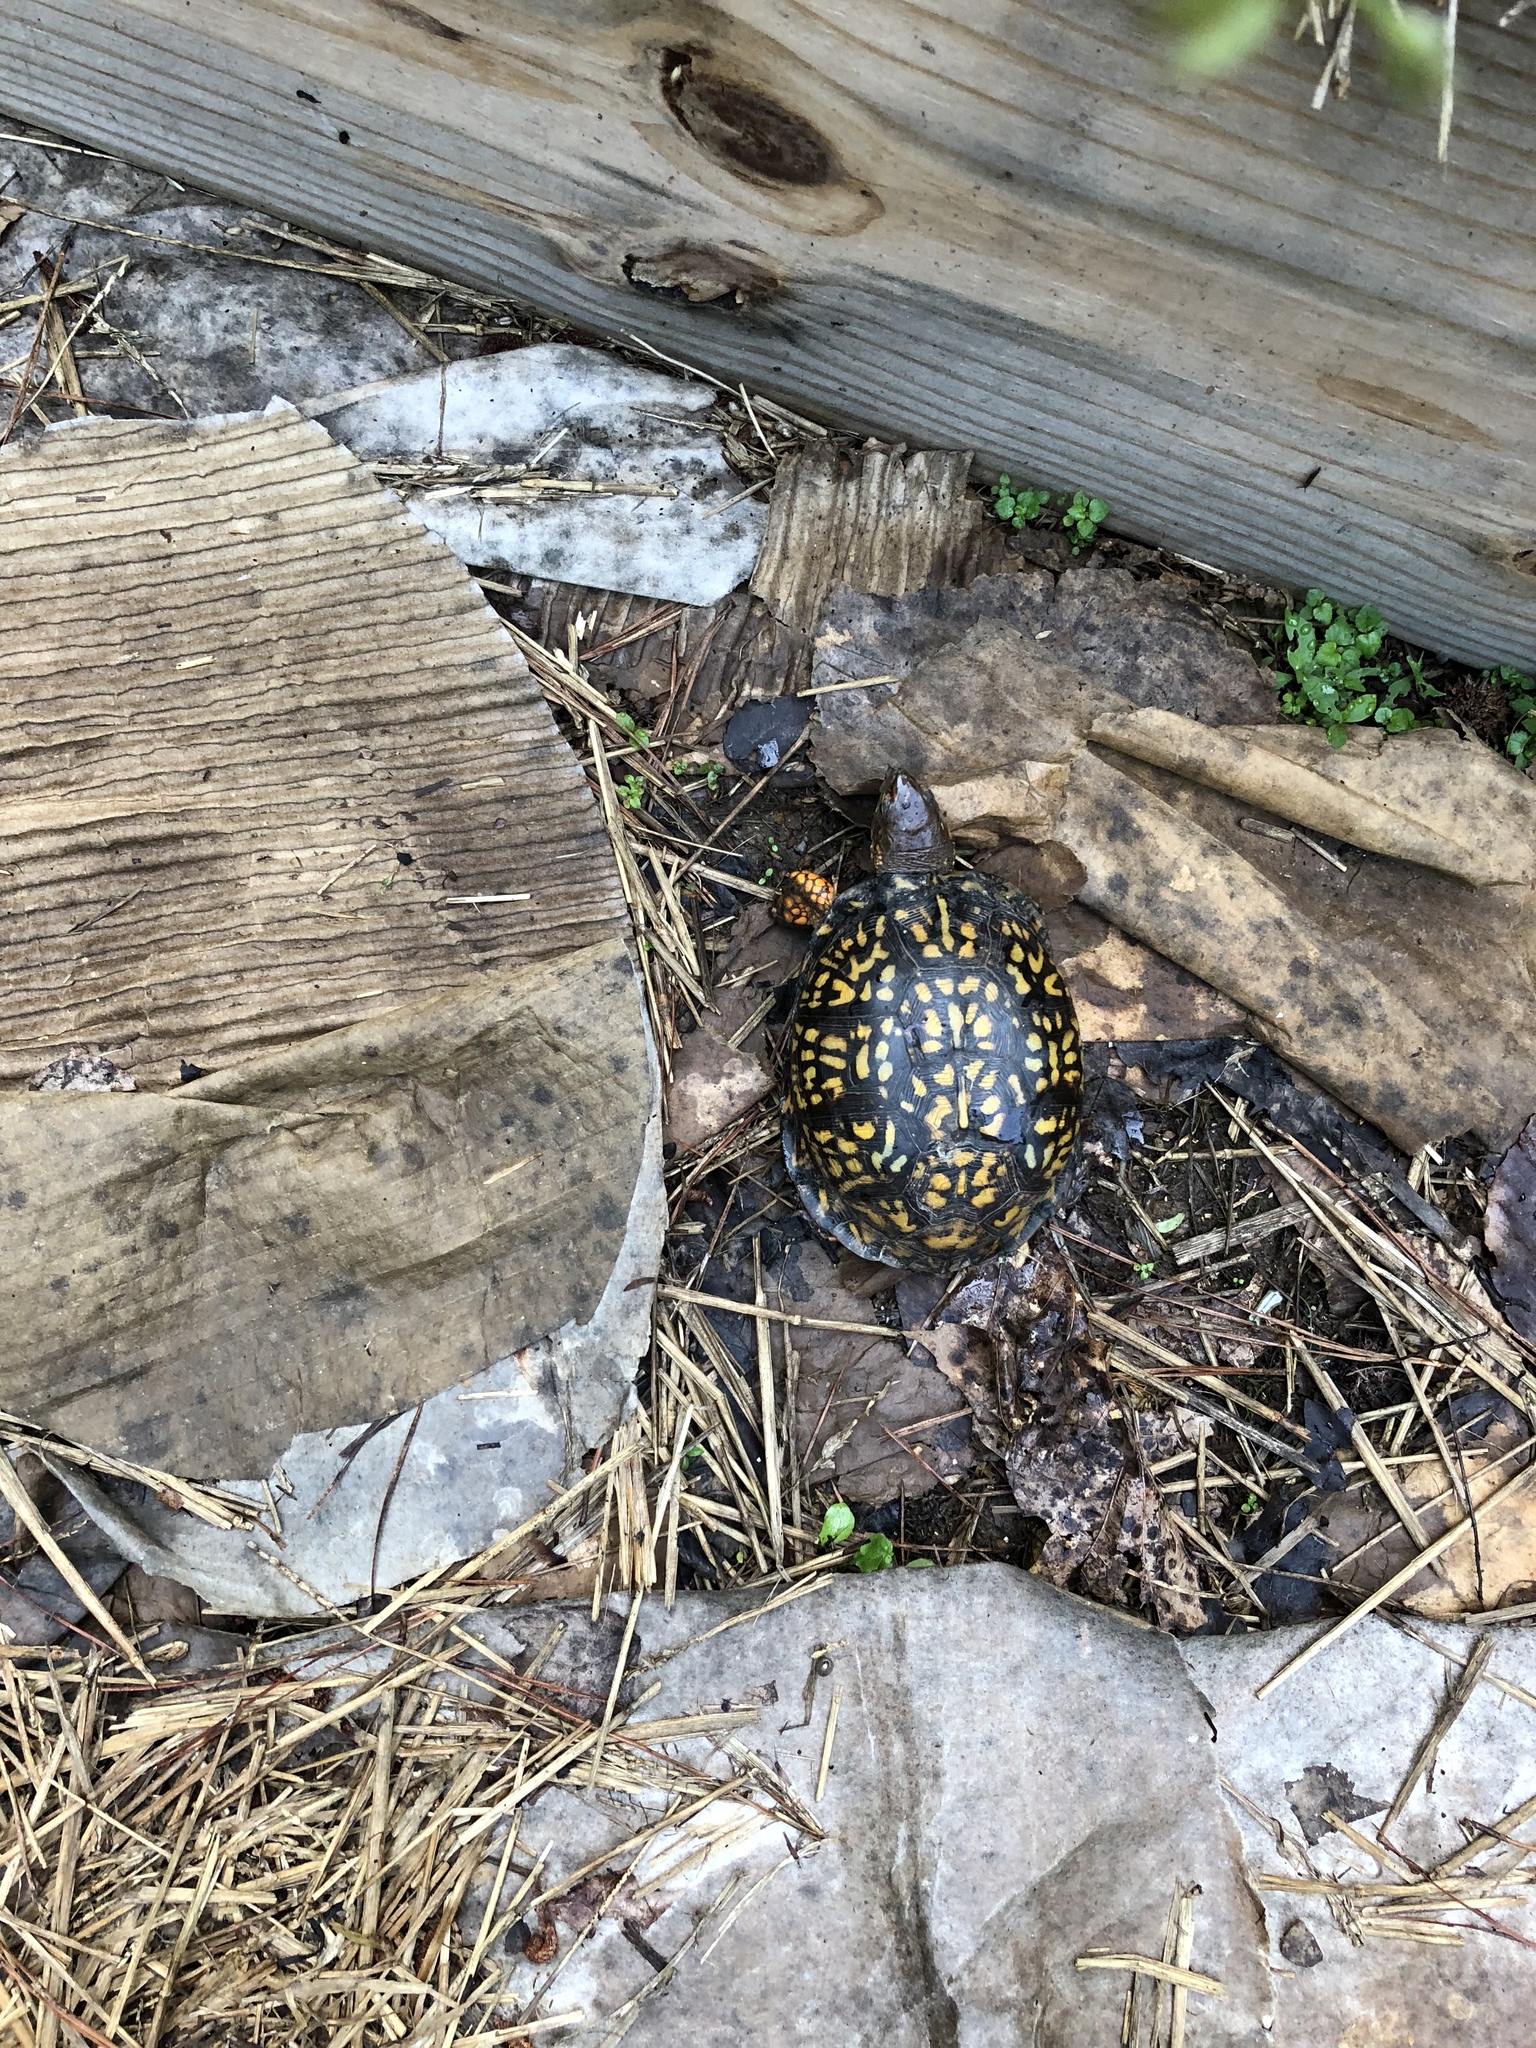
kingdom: Animalia
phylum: Chordata
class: Testudines
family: Emydidae
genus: Terrapene
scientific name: Terrapene carolina
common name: Common box turtle
